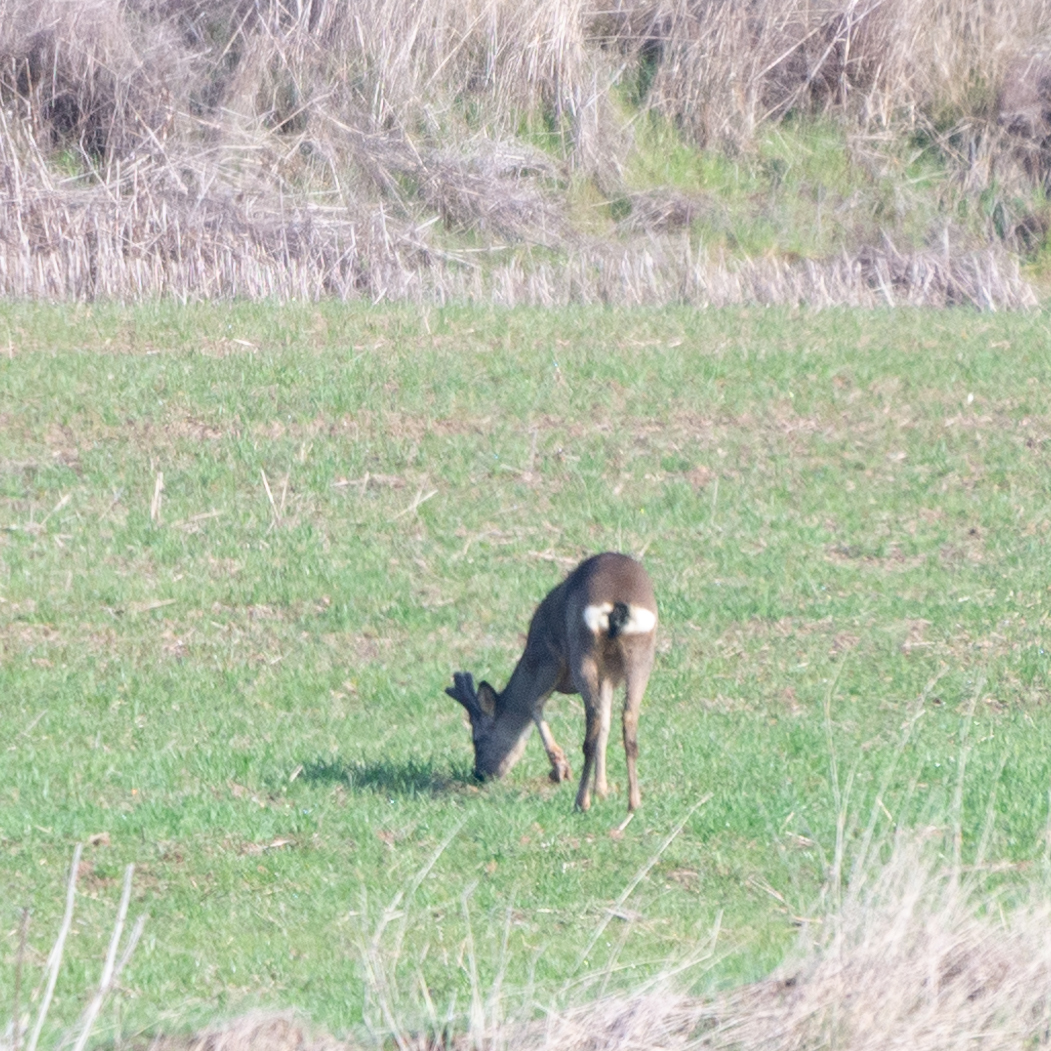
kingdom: Animalia
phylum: Chordata
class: Mammalia
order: Artiodactyla
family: Cervidae
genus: Capreolus
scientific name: Capreolus capreolus
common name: Western roe deer
